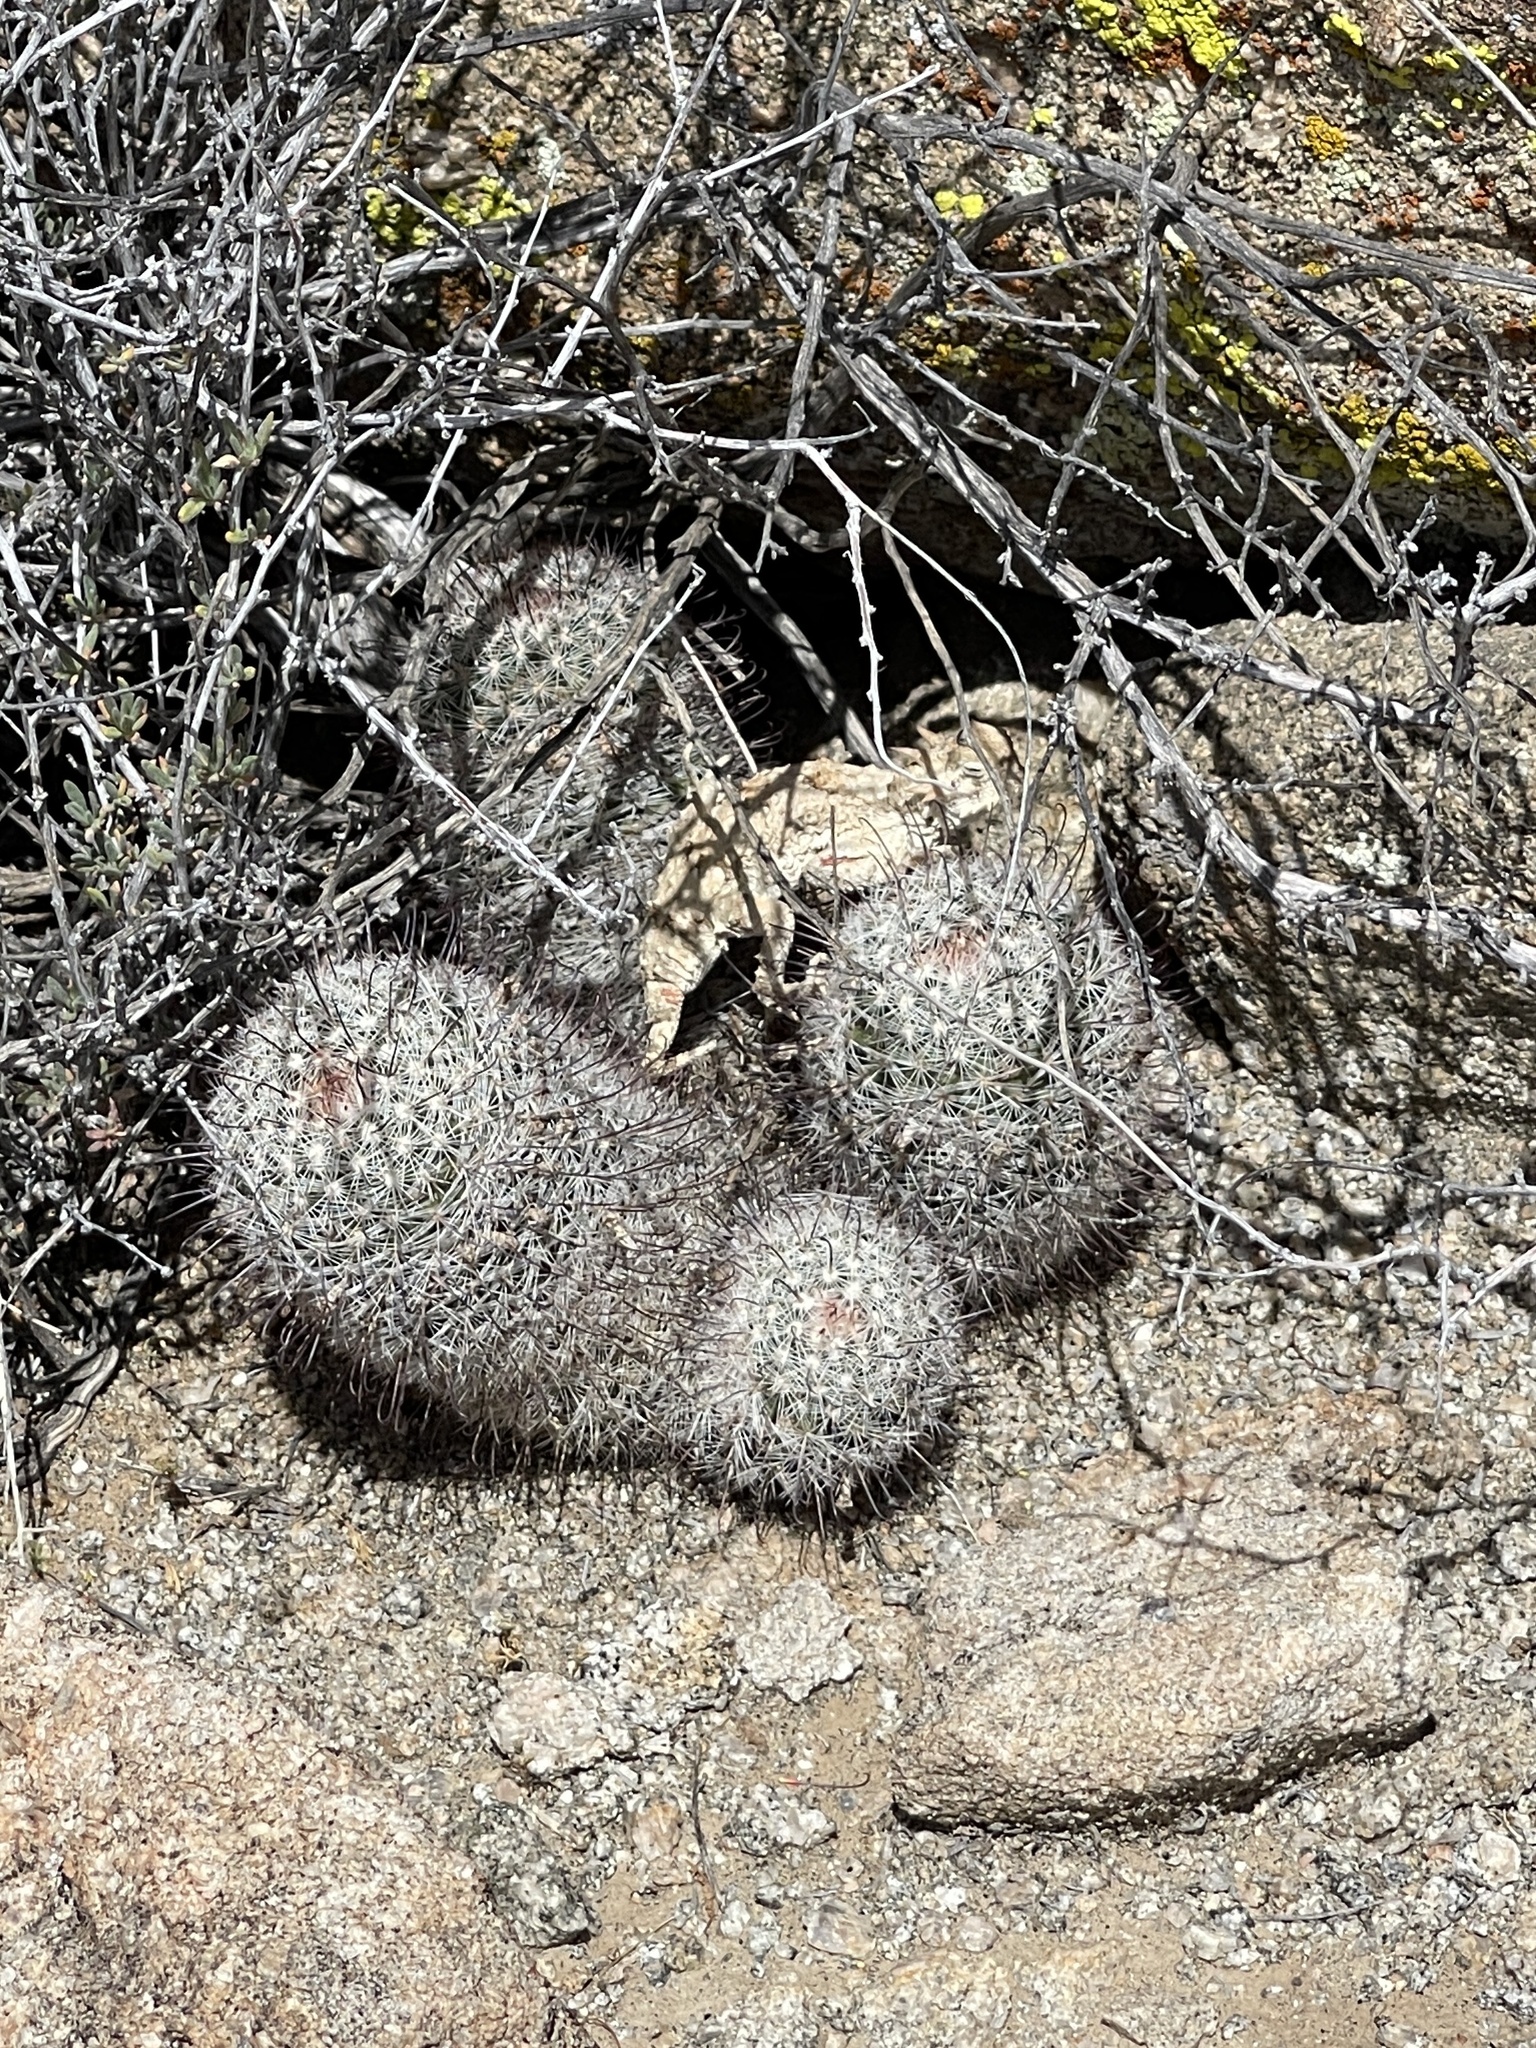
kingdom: Plantae
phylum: Tracheophyta
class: Magnoliopsida
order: Caryophyllales
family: Cactaceae
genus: Cochemiea
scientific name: Cochemiea grahamii
